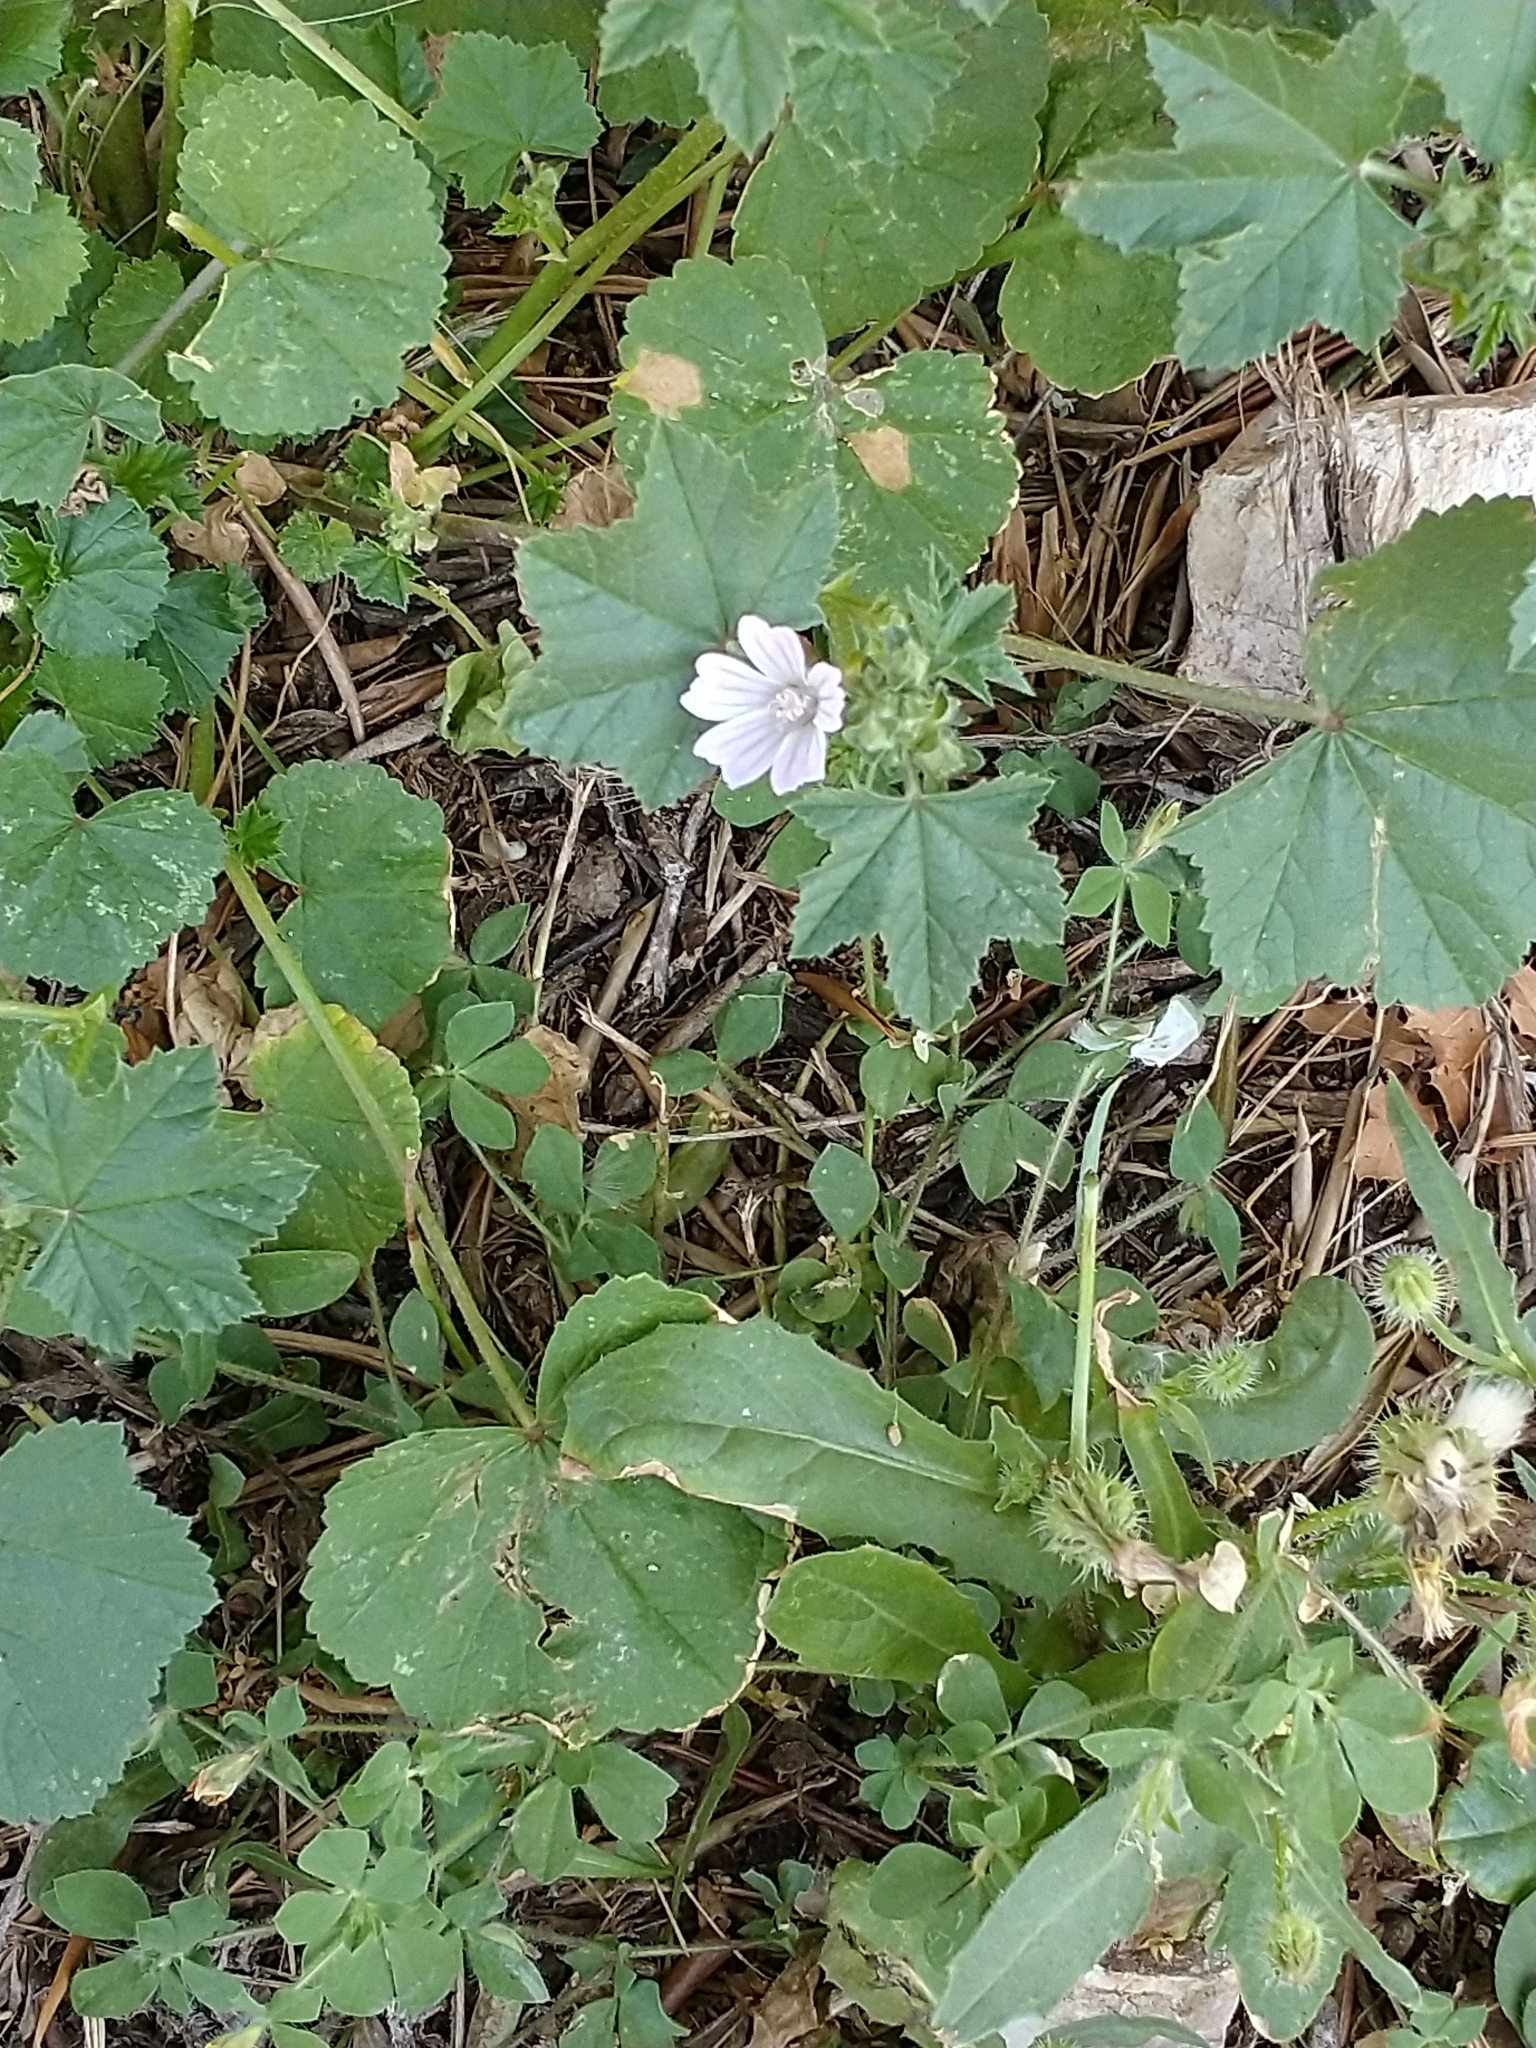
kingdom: Plantae
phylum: Tracheophyta
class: Magnoliopsida
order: Malvales
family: Malvaceae
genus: Malva
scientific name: Malva multiflora
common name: Cheeseweed
